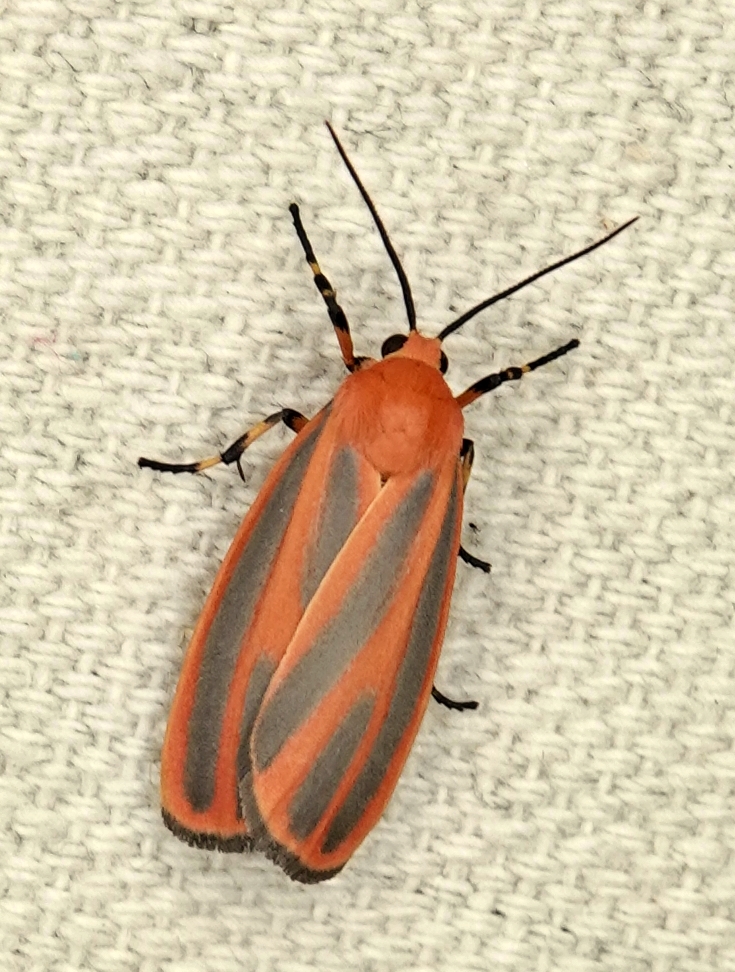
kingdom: Animalia
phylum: Arthropoda
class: Insecta
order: Lepidoptera
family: Erebidae
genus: Hypoprepia
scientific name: Hypoprepia miniata
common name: Scarlet-winged lichen moth
